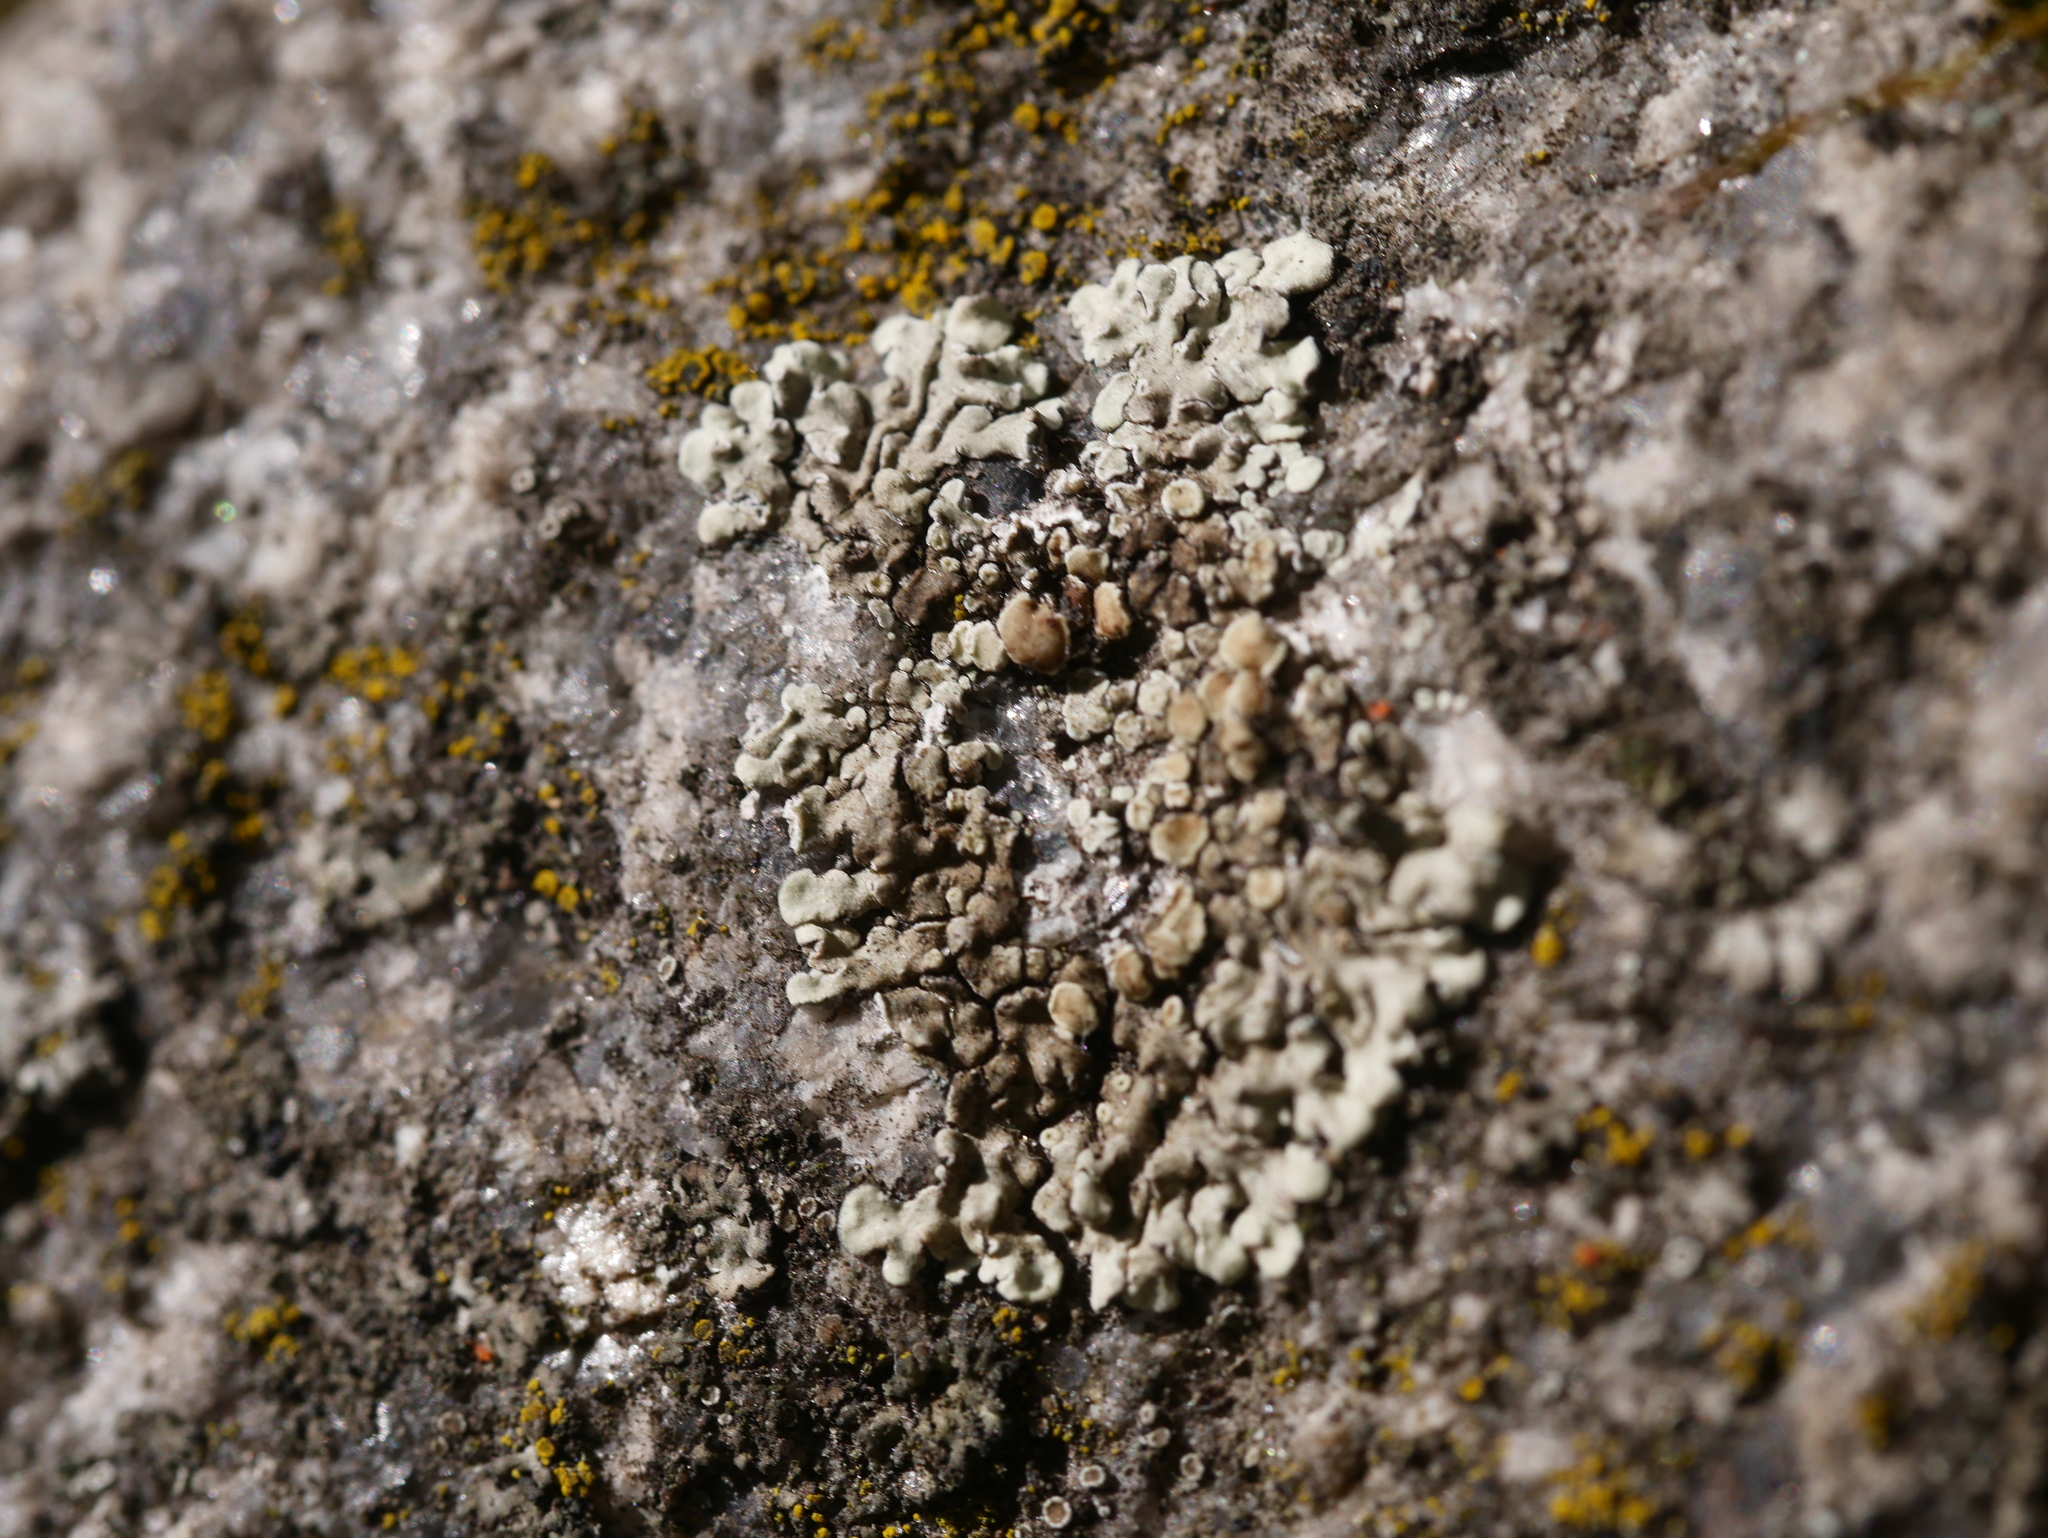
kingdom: Fungi
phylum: Ascomycota
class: Lecanoromycetes
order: Lecanorales
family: Lecanoraceae
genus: Protoparmeliopsis
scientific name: Protoparmeliopsis muralis
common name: Stonewall rim lichen
